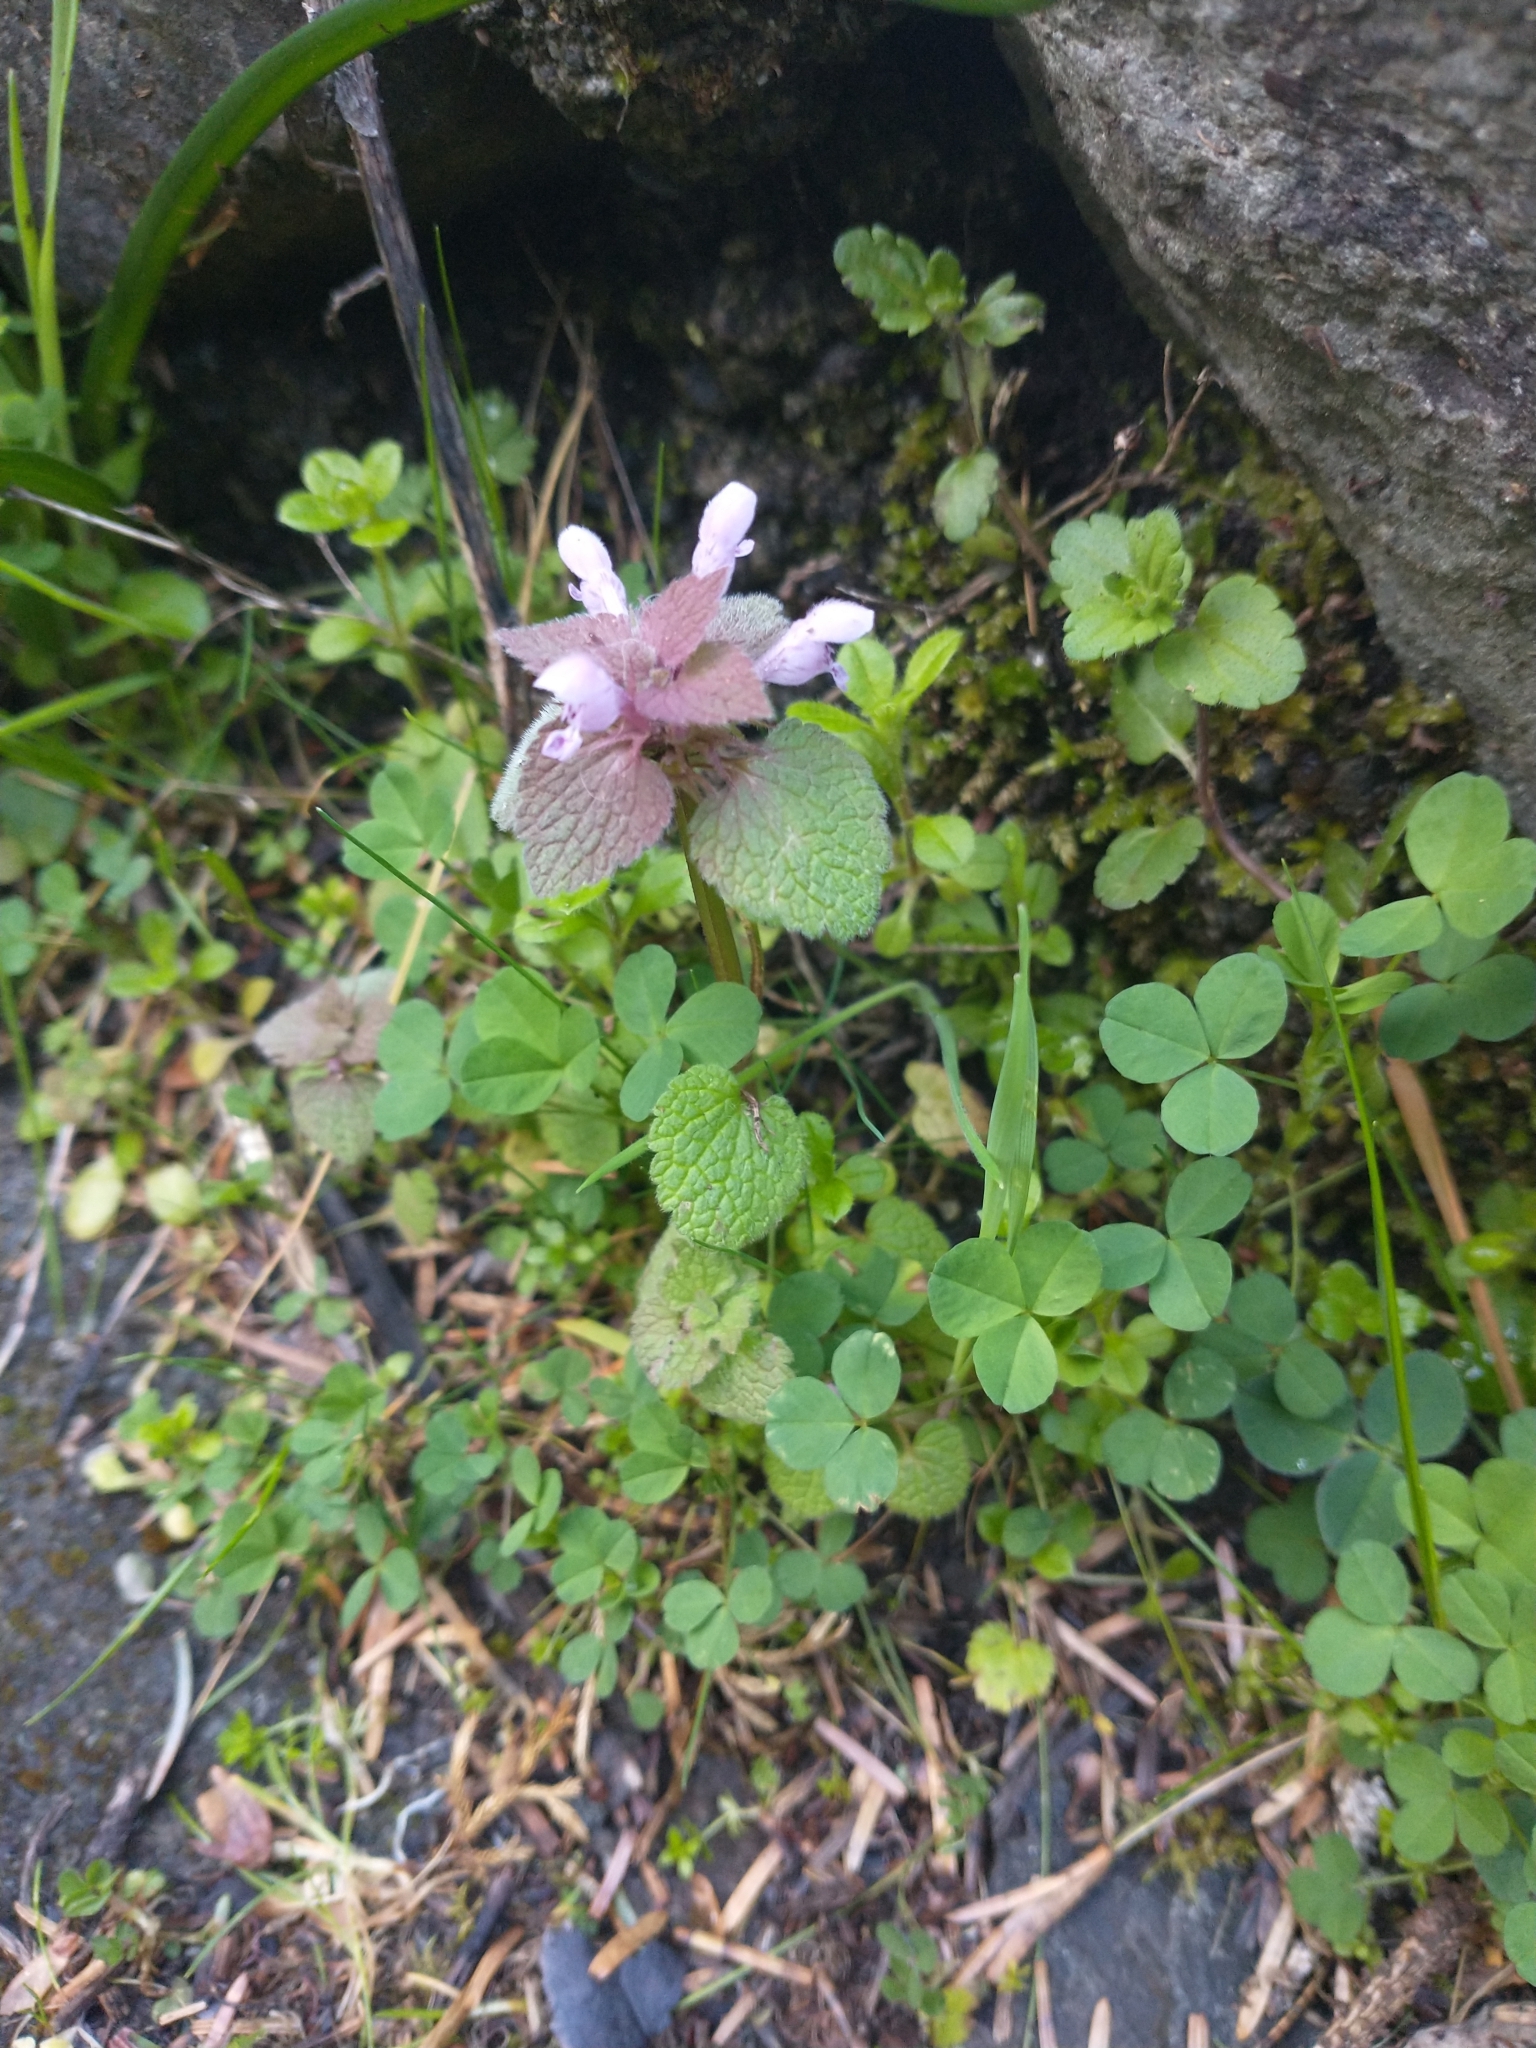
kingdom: Plantae
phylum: Tracheophyta
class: Magnoliopsida
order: Lamiales
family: Lamiaceae
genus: Lamium
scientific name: Lamium purpureum
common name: Red dead-nettle
